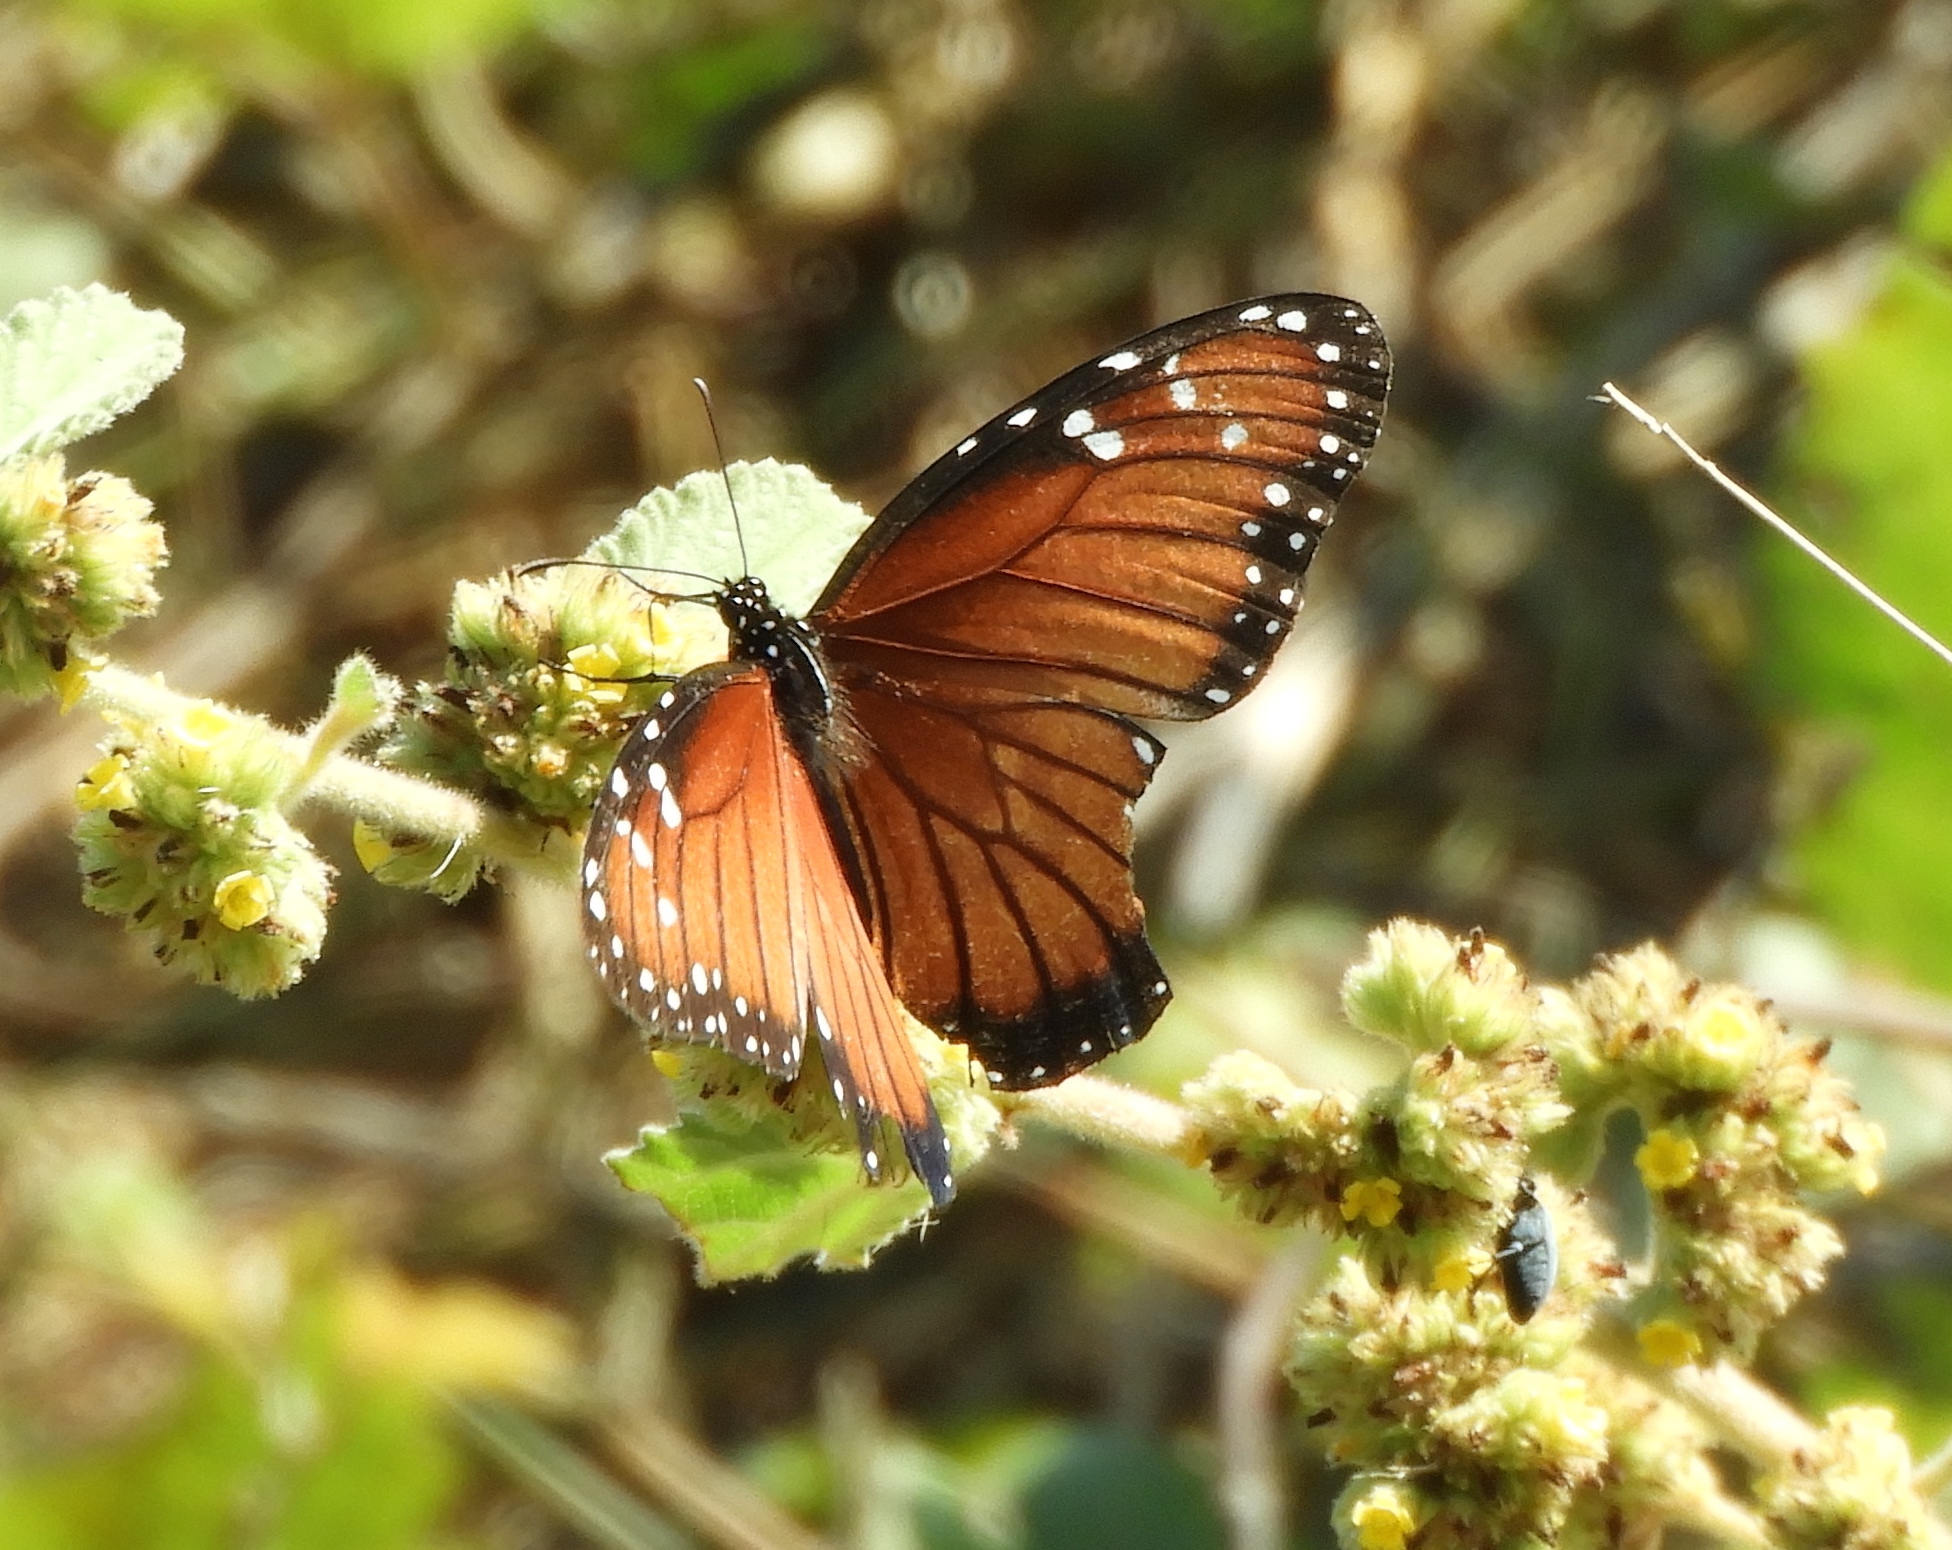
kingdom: Animalia
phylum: Arthropoda
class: Insecta
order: Lepidoptera
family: Nymphalidae
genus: Danaus
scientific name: Danaus eresimus
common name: Soldier
